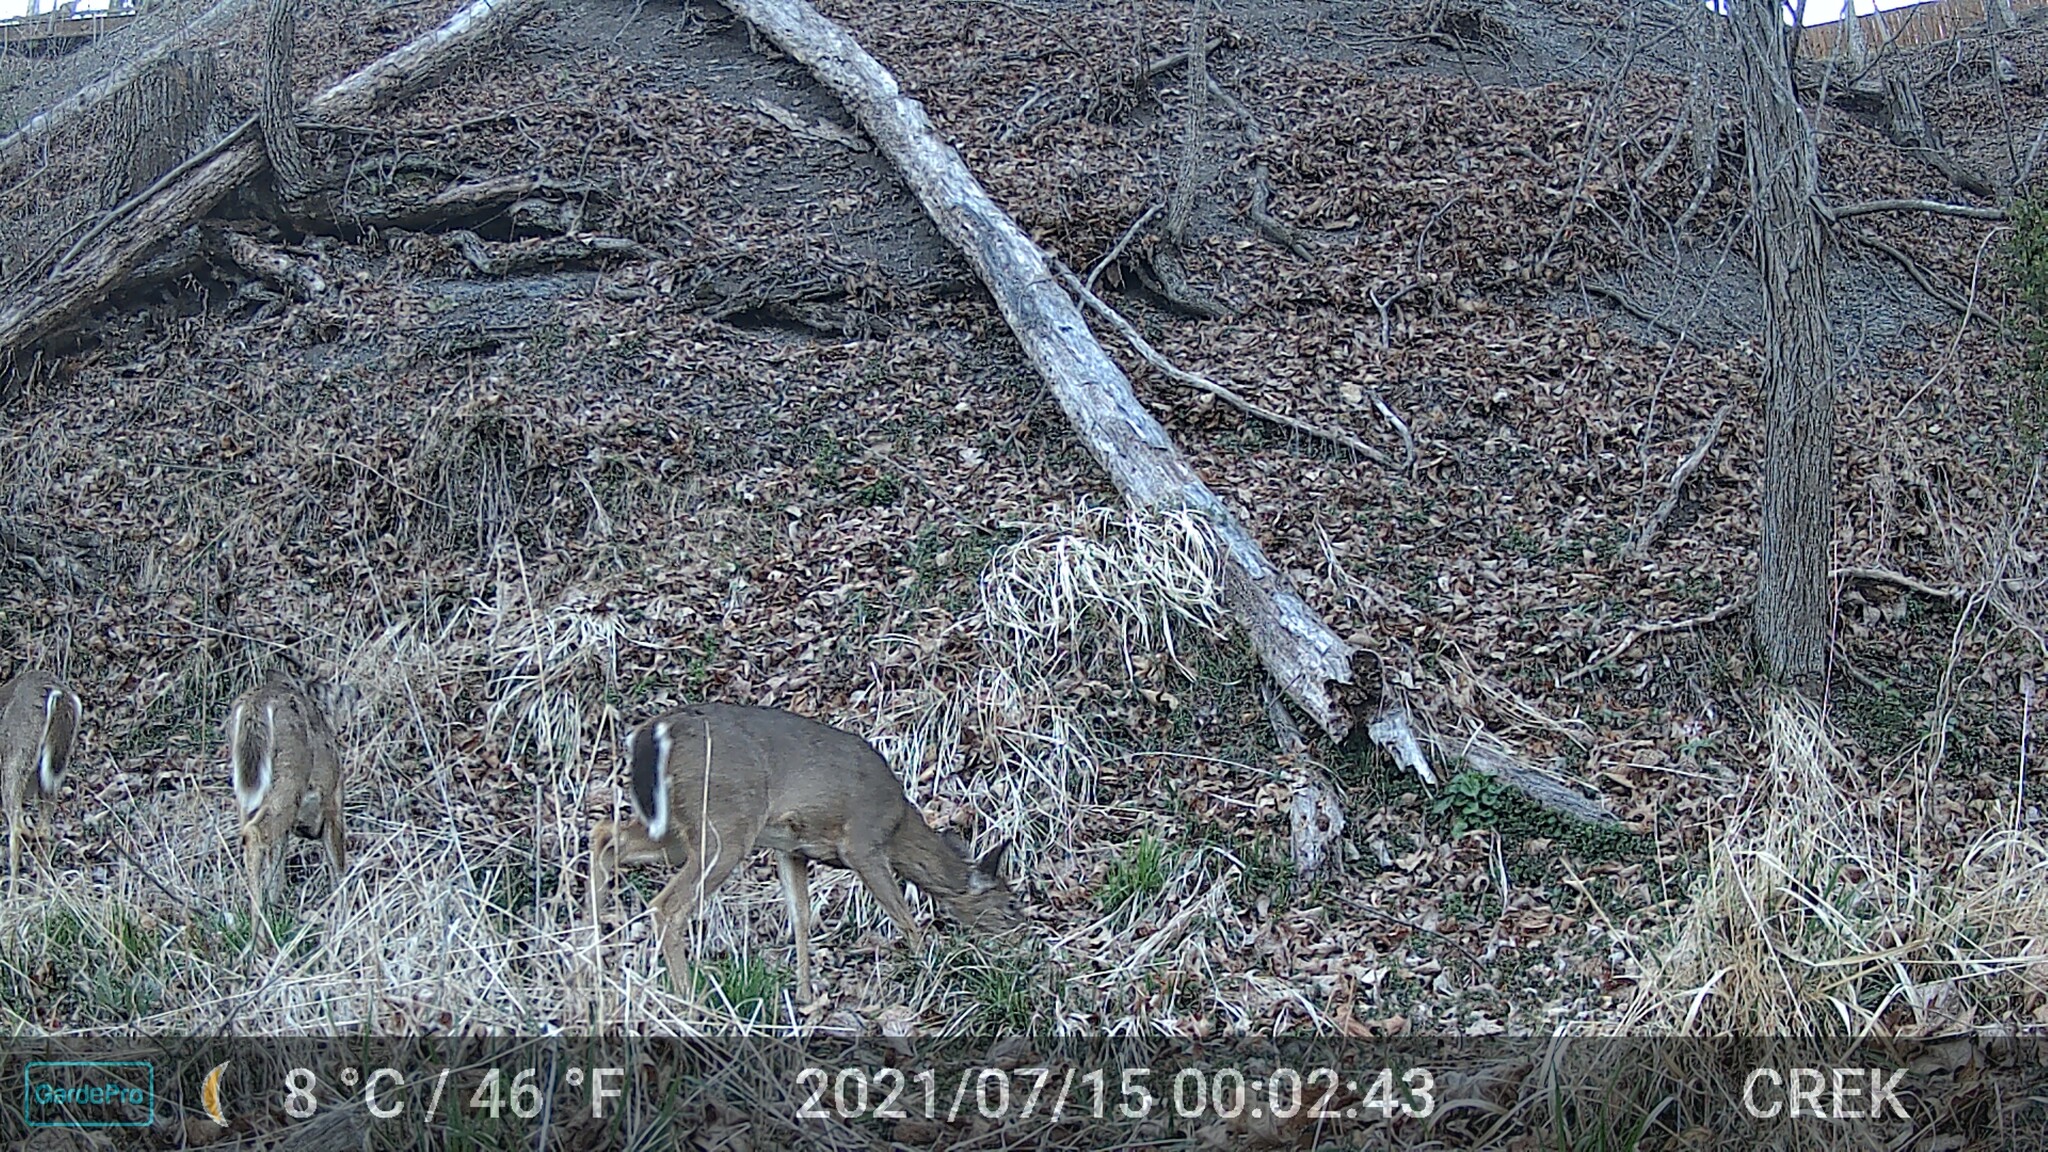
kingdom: Animalia
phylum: Chordata
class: Mammalia
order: Artiodactyla
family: Cervidae
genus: Odocoileus
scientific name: Odocoileus virginianus
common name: White-tailed deer
